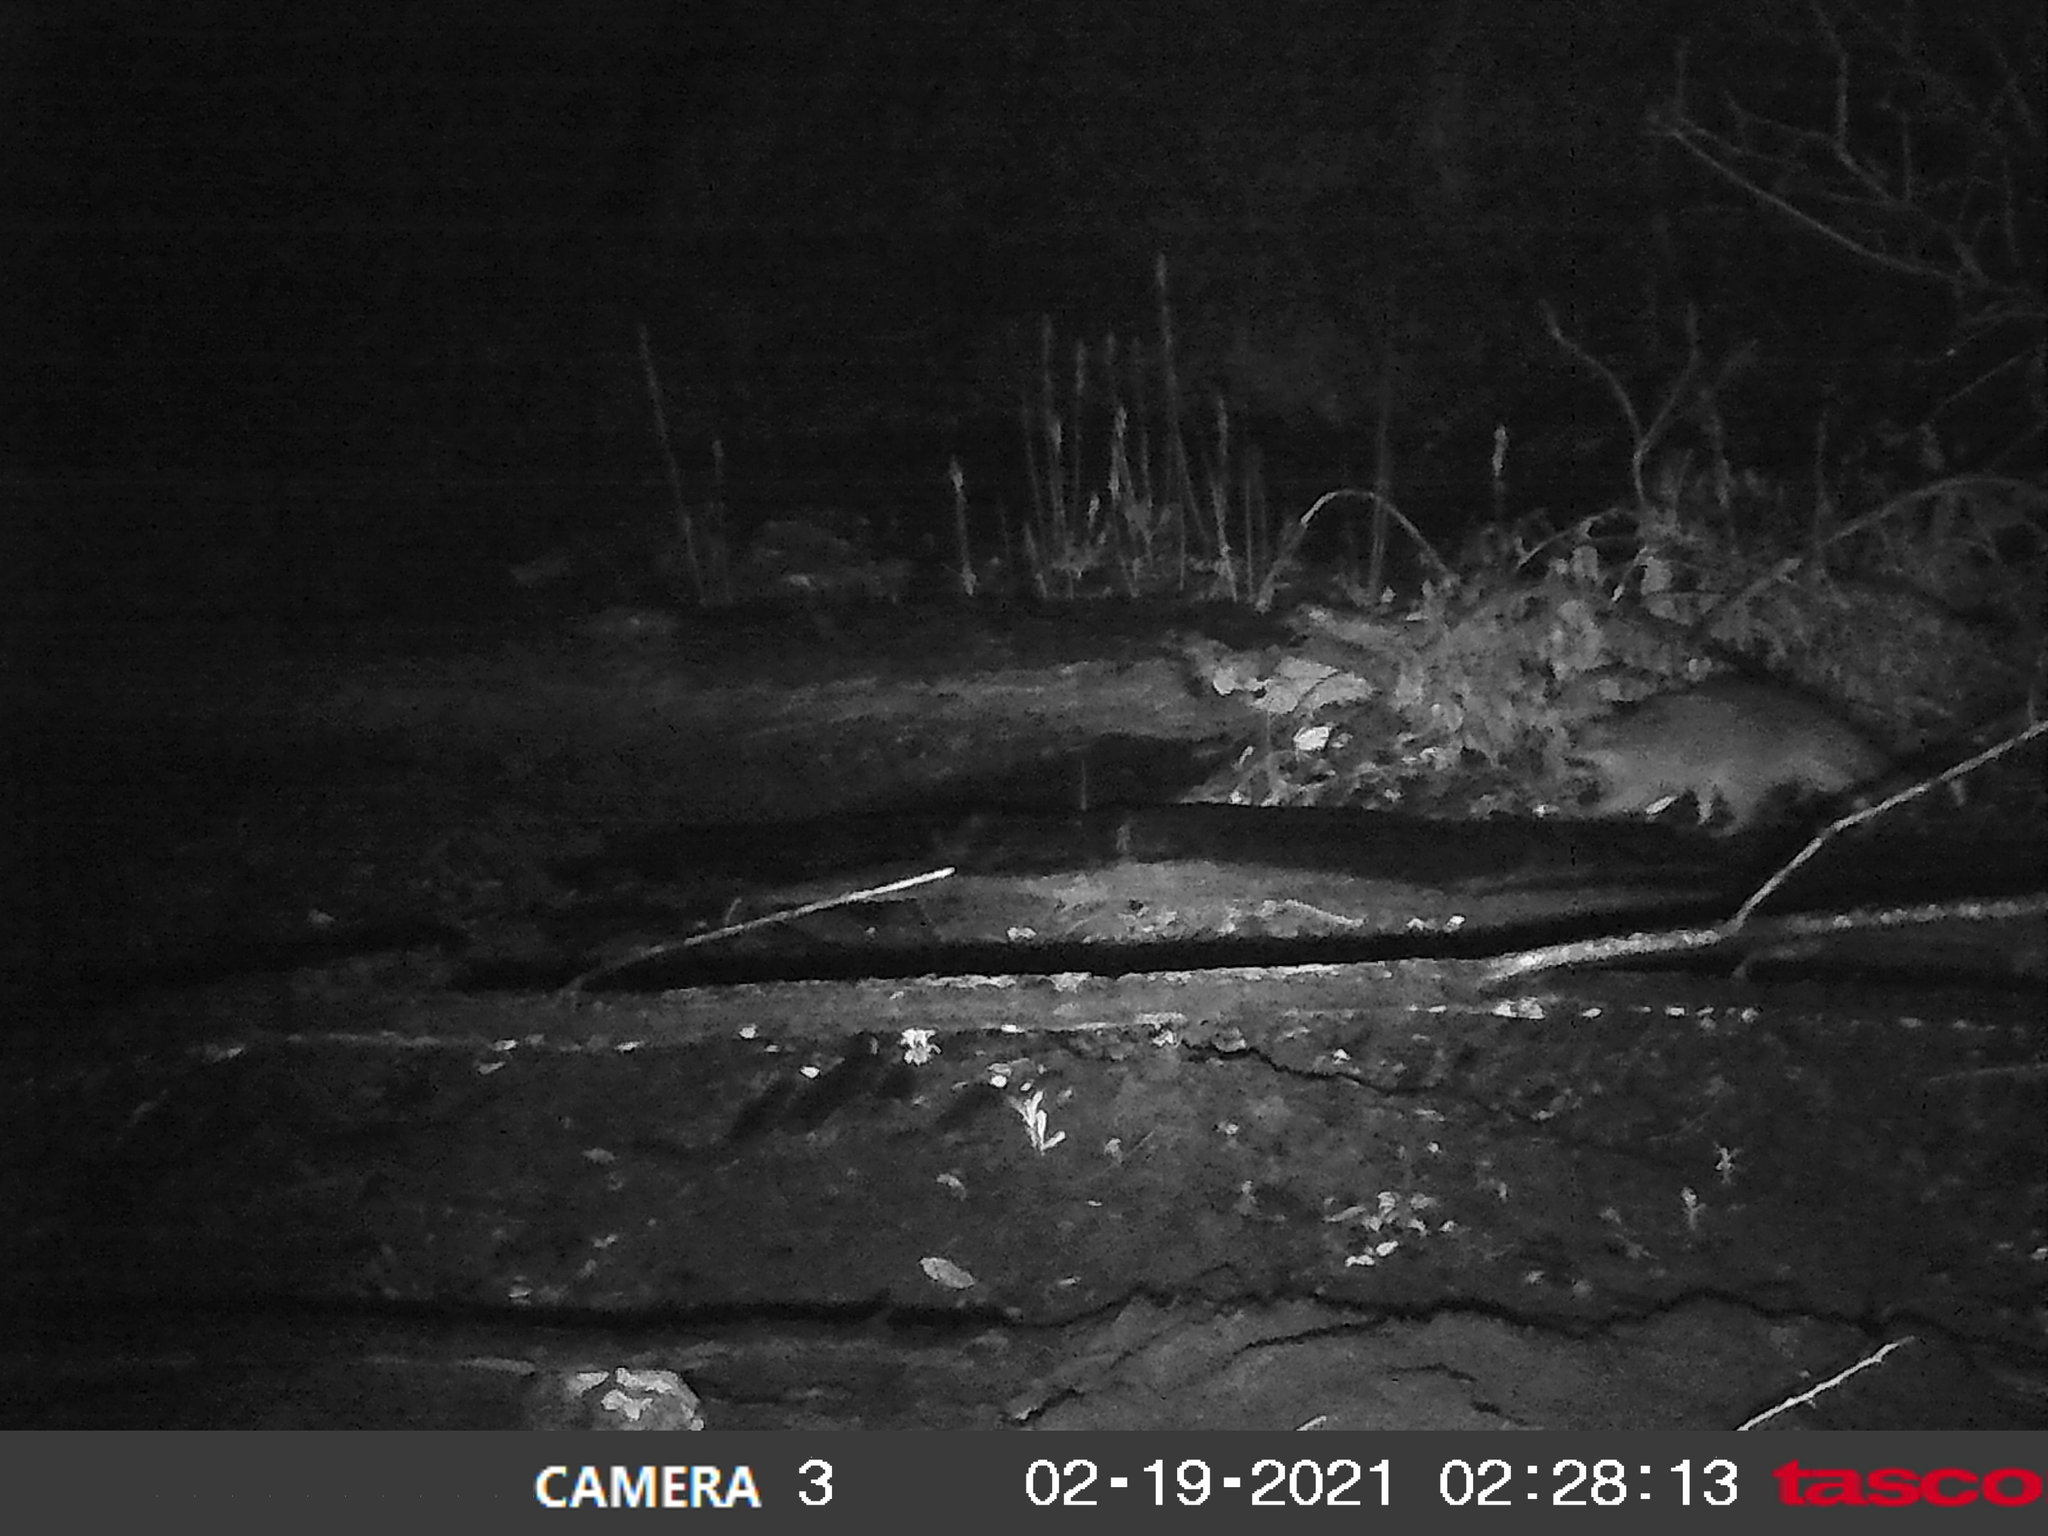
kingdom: Animalia
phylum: Chordata
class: Mammalia
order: Carnivora
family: Procyonidae
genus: Procyon
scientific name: Procyon lotor
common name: Raccoon
